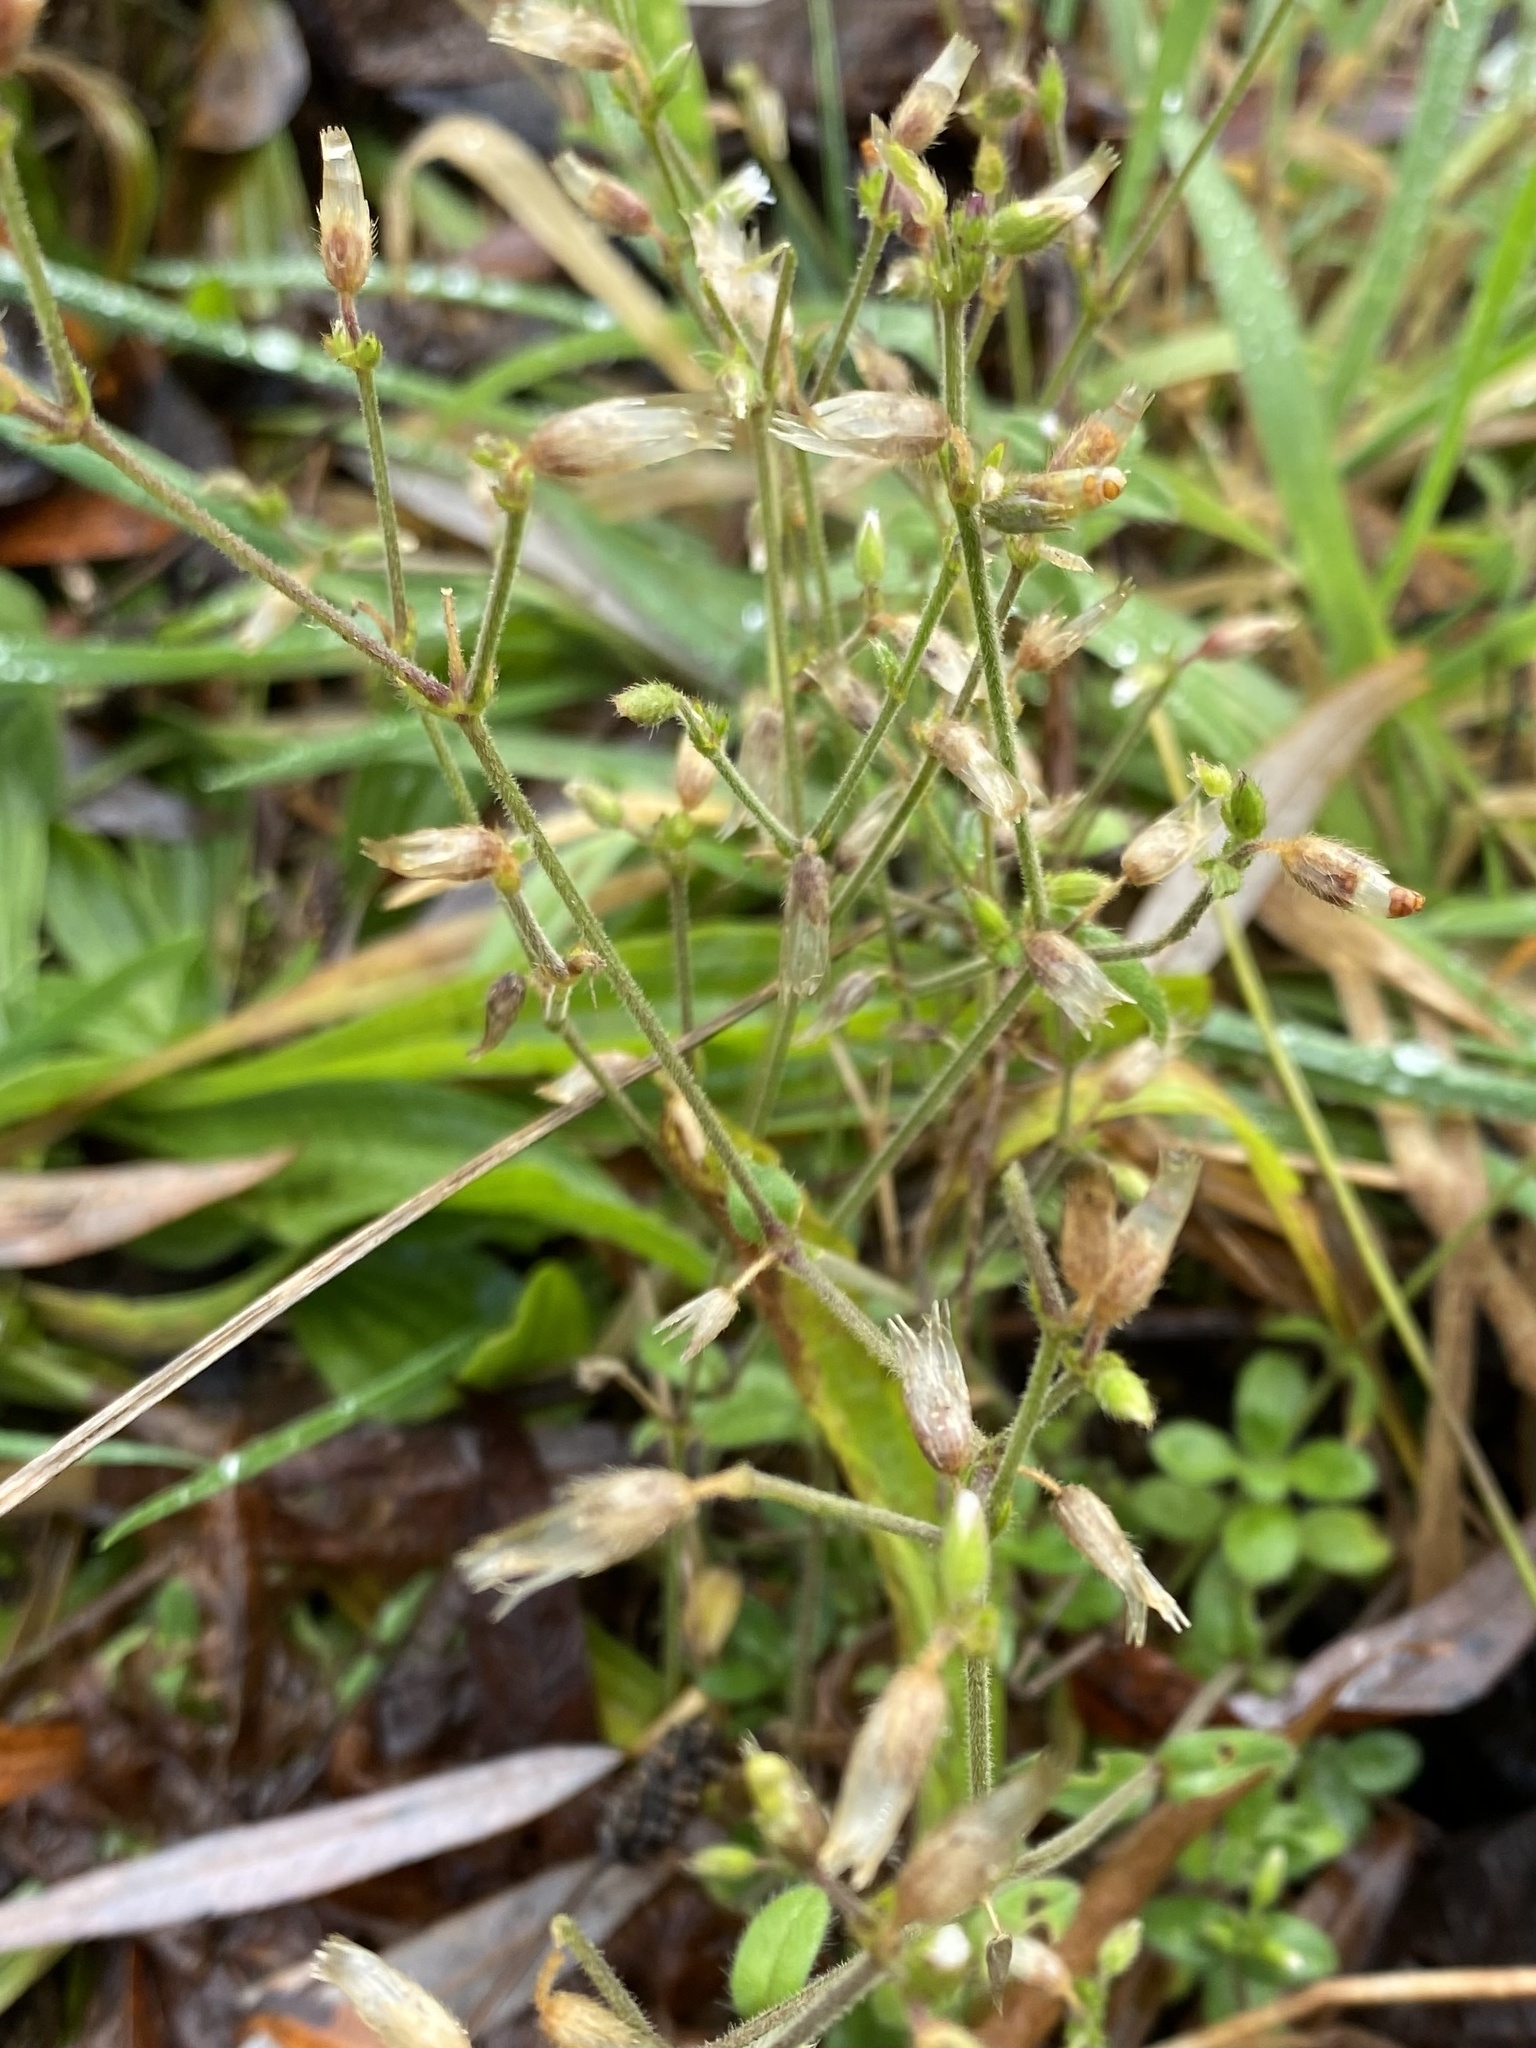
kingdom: Plantae
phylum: Tracheophyta
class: Magnoliopsida
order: Caryophyllales
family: Caryophyllaceae
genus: Cerastium
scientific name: Cerastium fontanum
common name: Common mouse-ear
